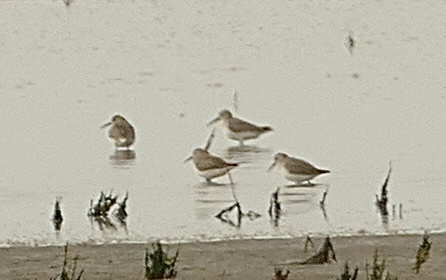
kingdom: Animalia
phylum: Chordata
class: Aves
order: Charadriiformes
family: Scolopacidae
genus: Calidris
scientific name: Calidris alpina
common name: Dunlin
